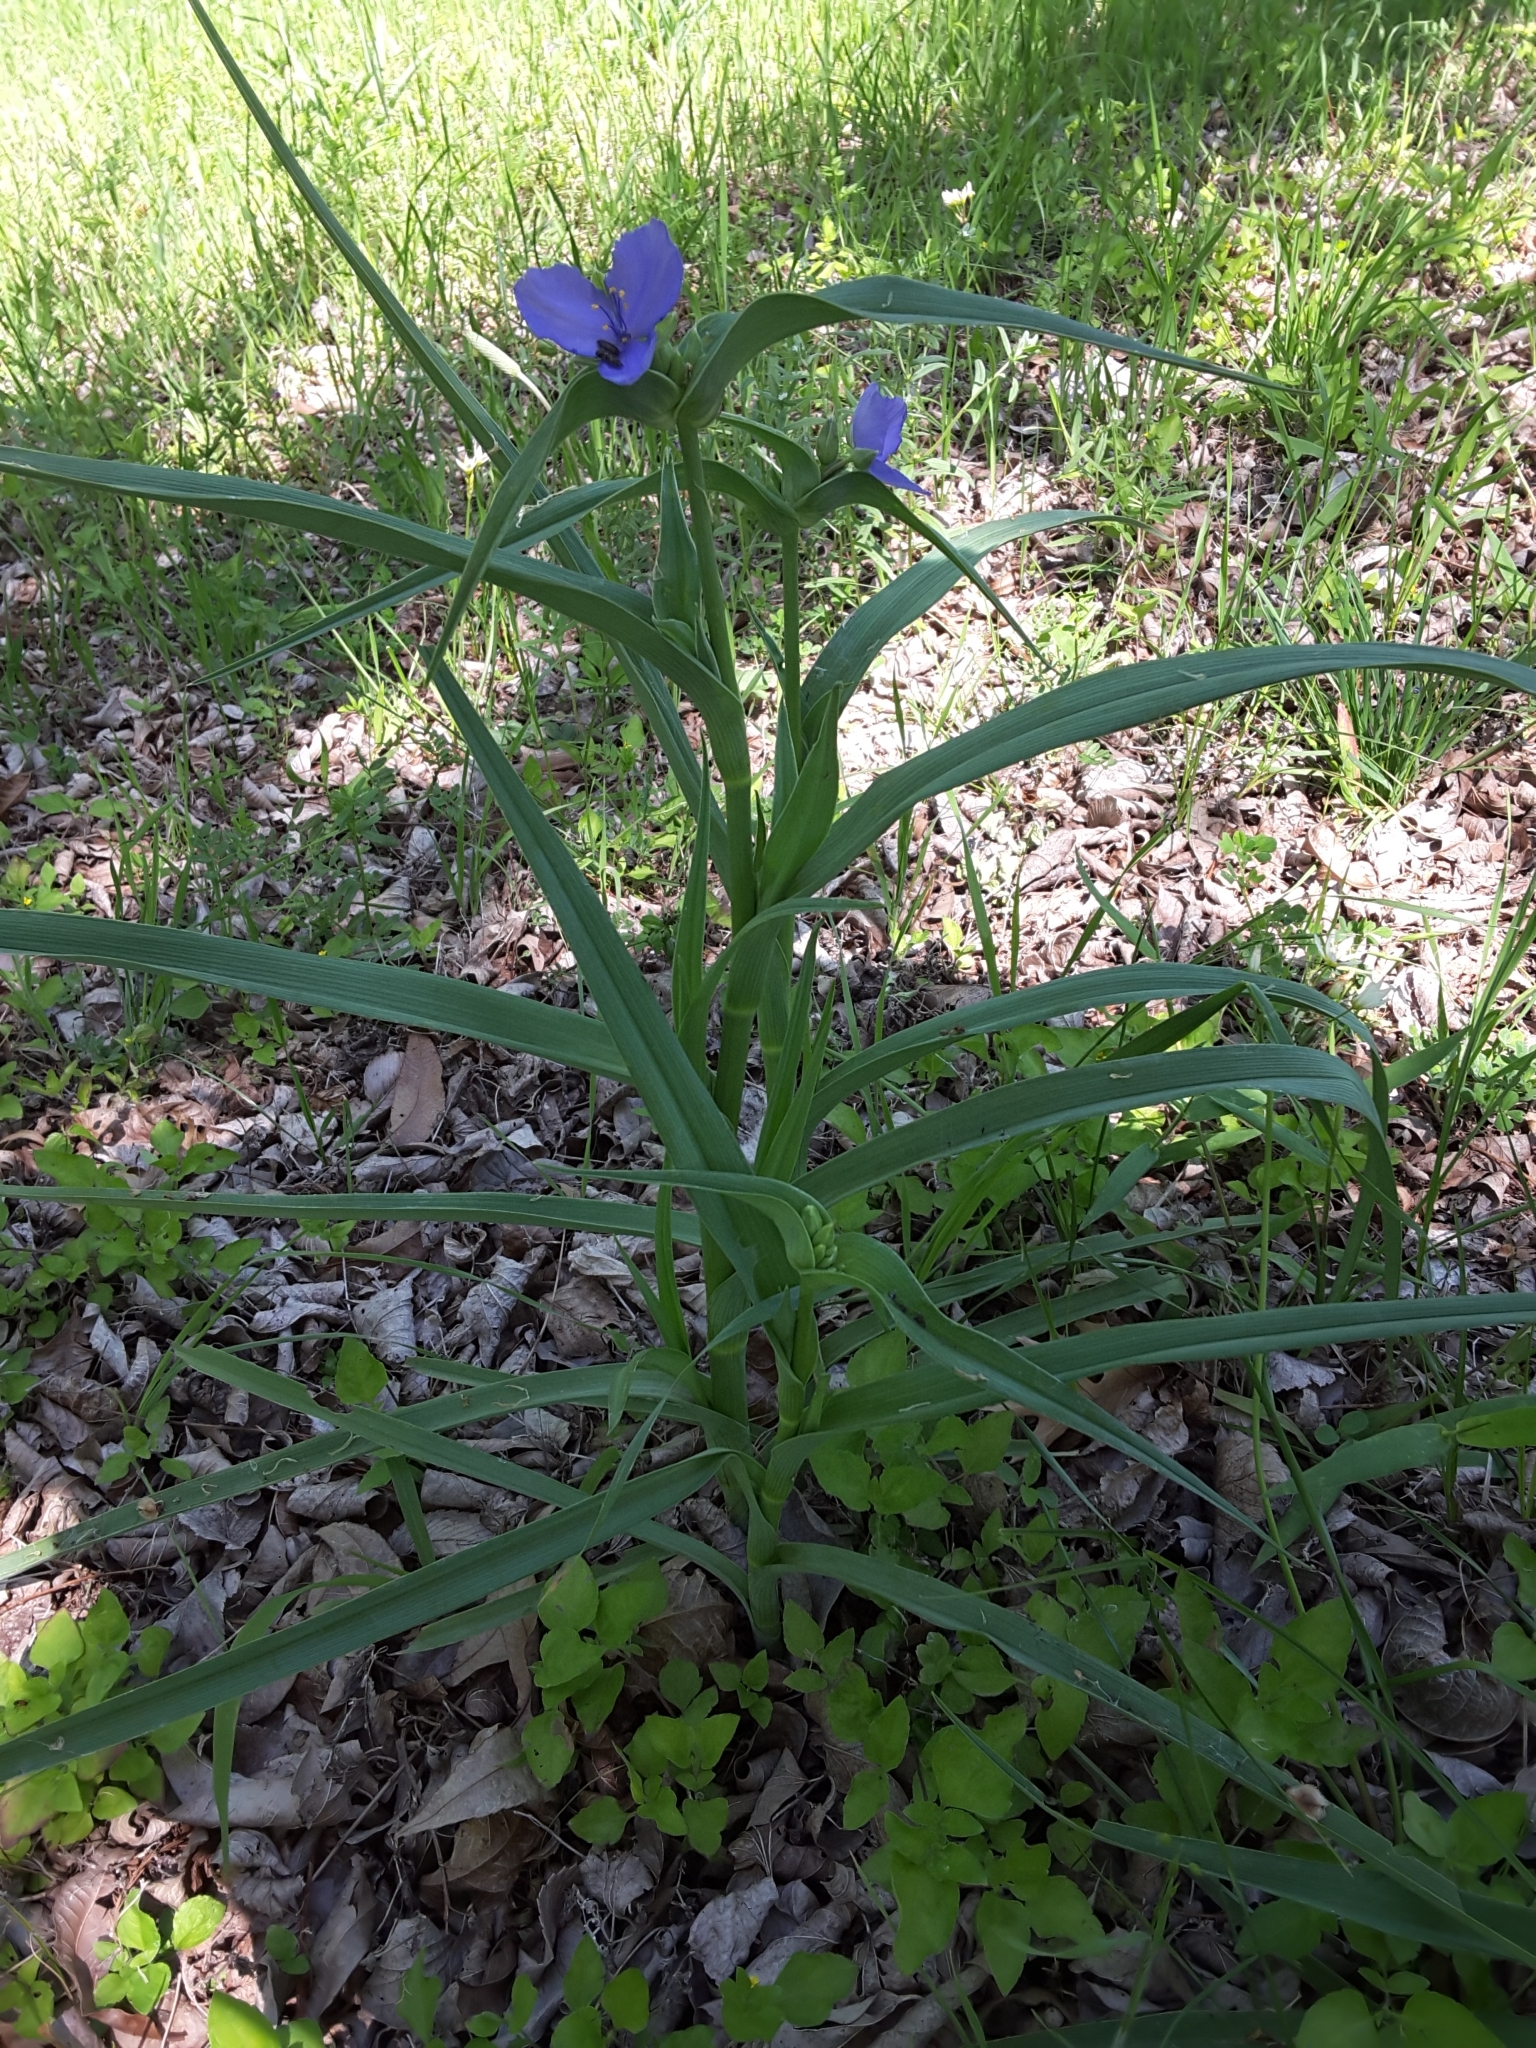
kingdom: Plantae
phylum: Tracheophyta
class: Liliopsida
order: Commelinales
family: Commelinaceae
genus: Tradescantia
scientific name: Tradescantia ohiensis
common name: Ohio spiderwort
